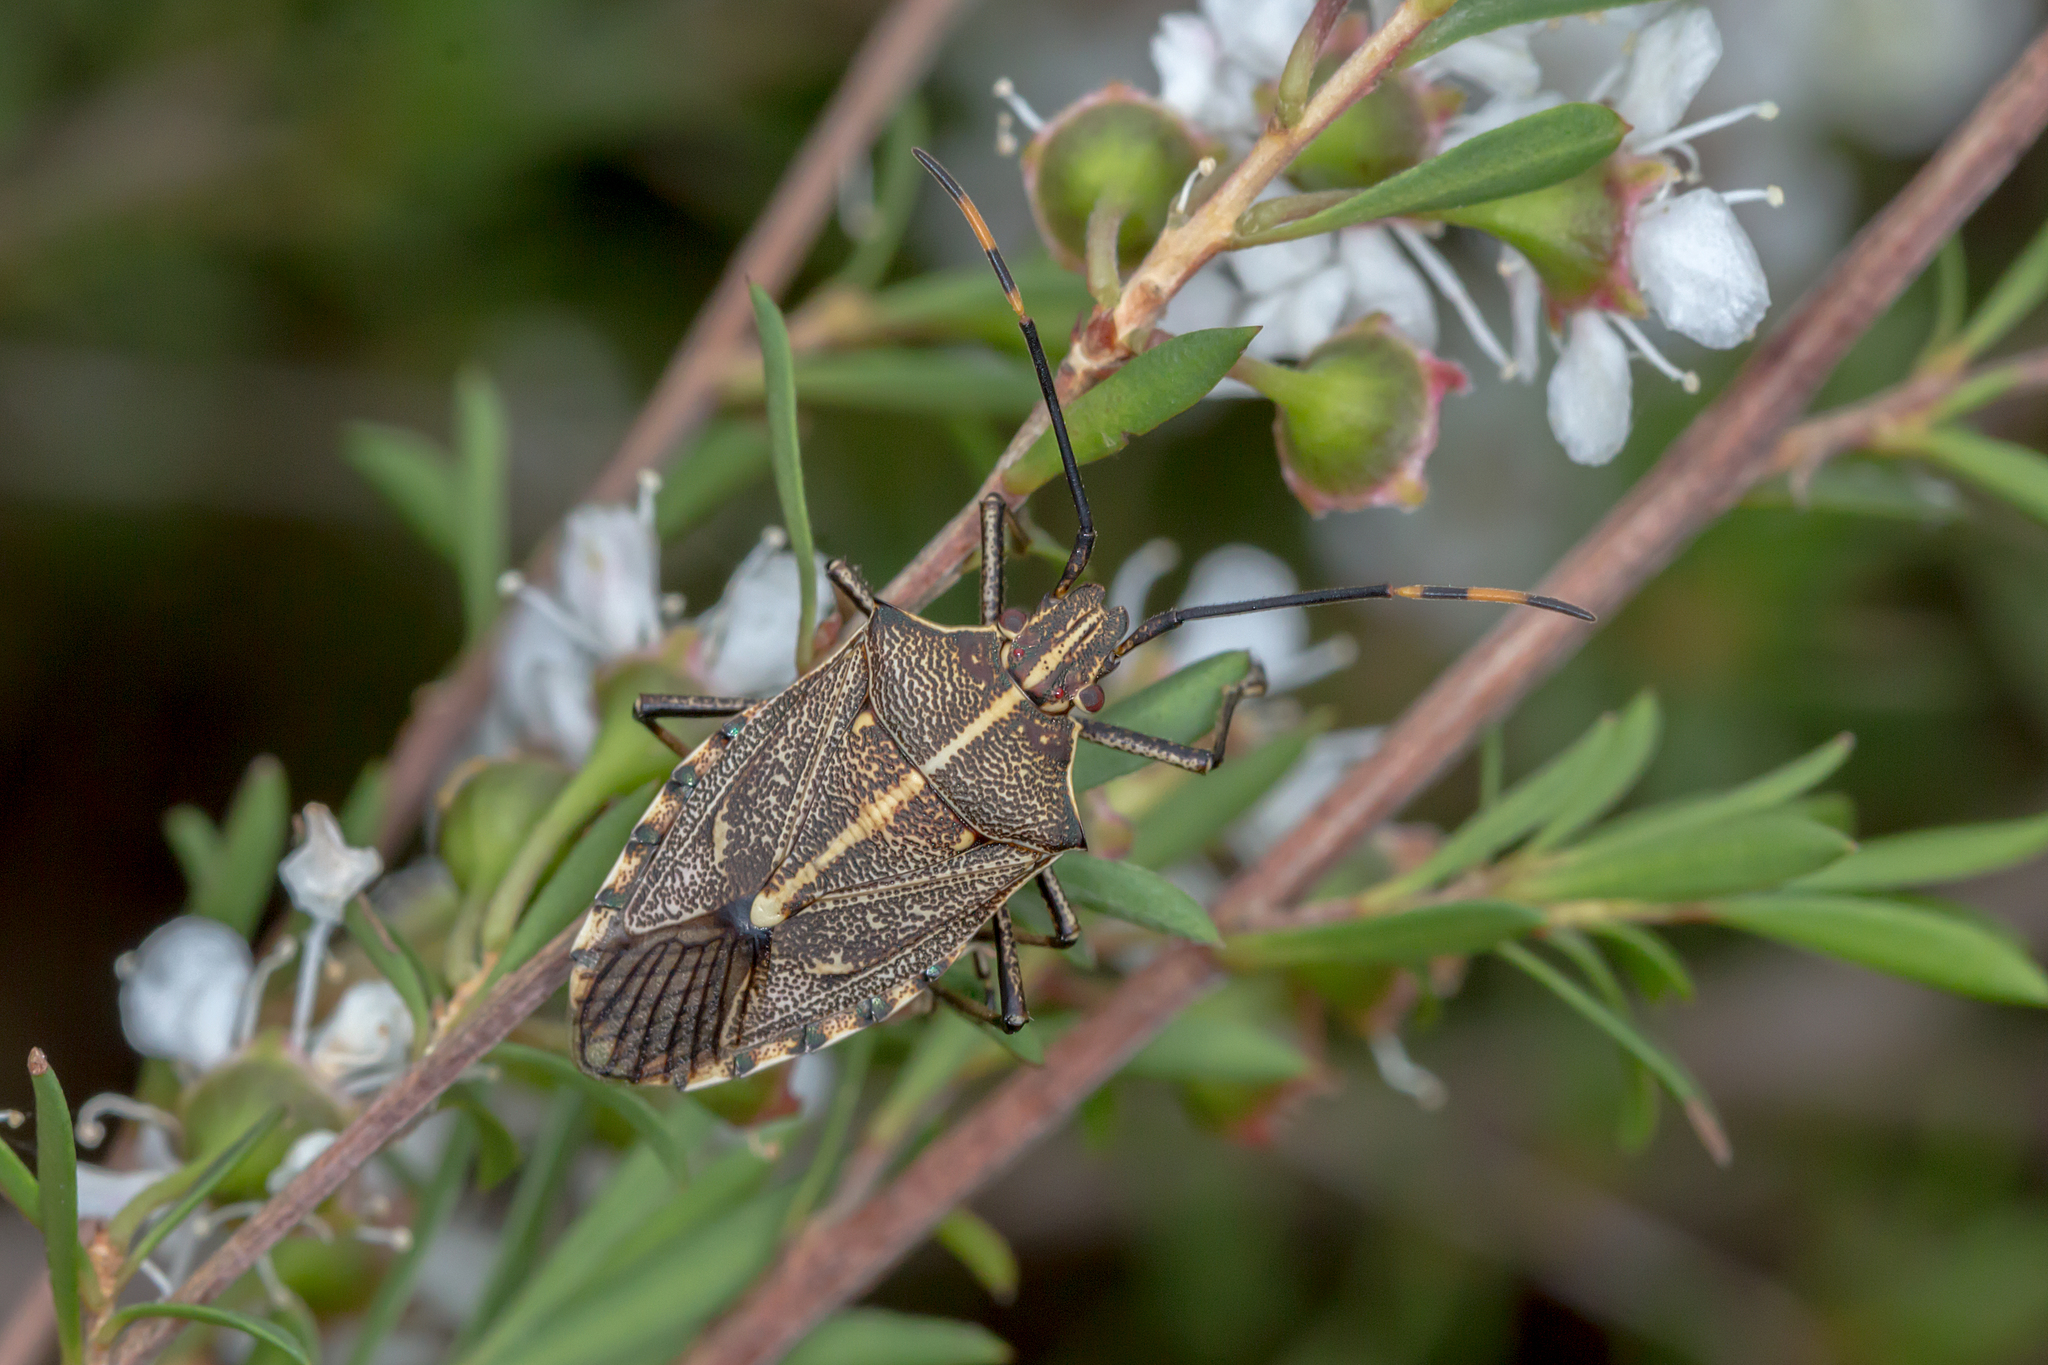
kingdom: Animalia
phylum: Arthropoda
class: Insecta
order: Hemiptera
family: Pentatomidae
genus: Omyta
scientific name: Omyta centrolineata
